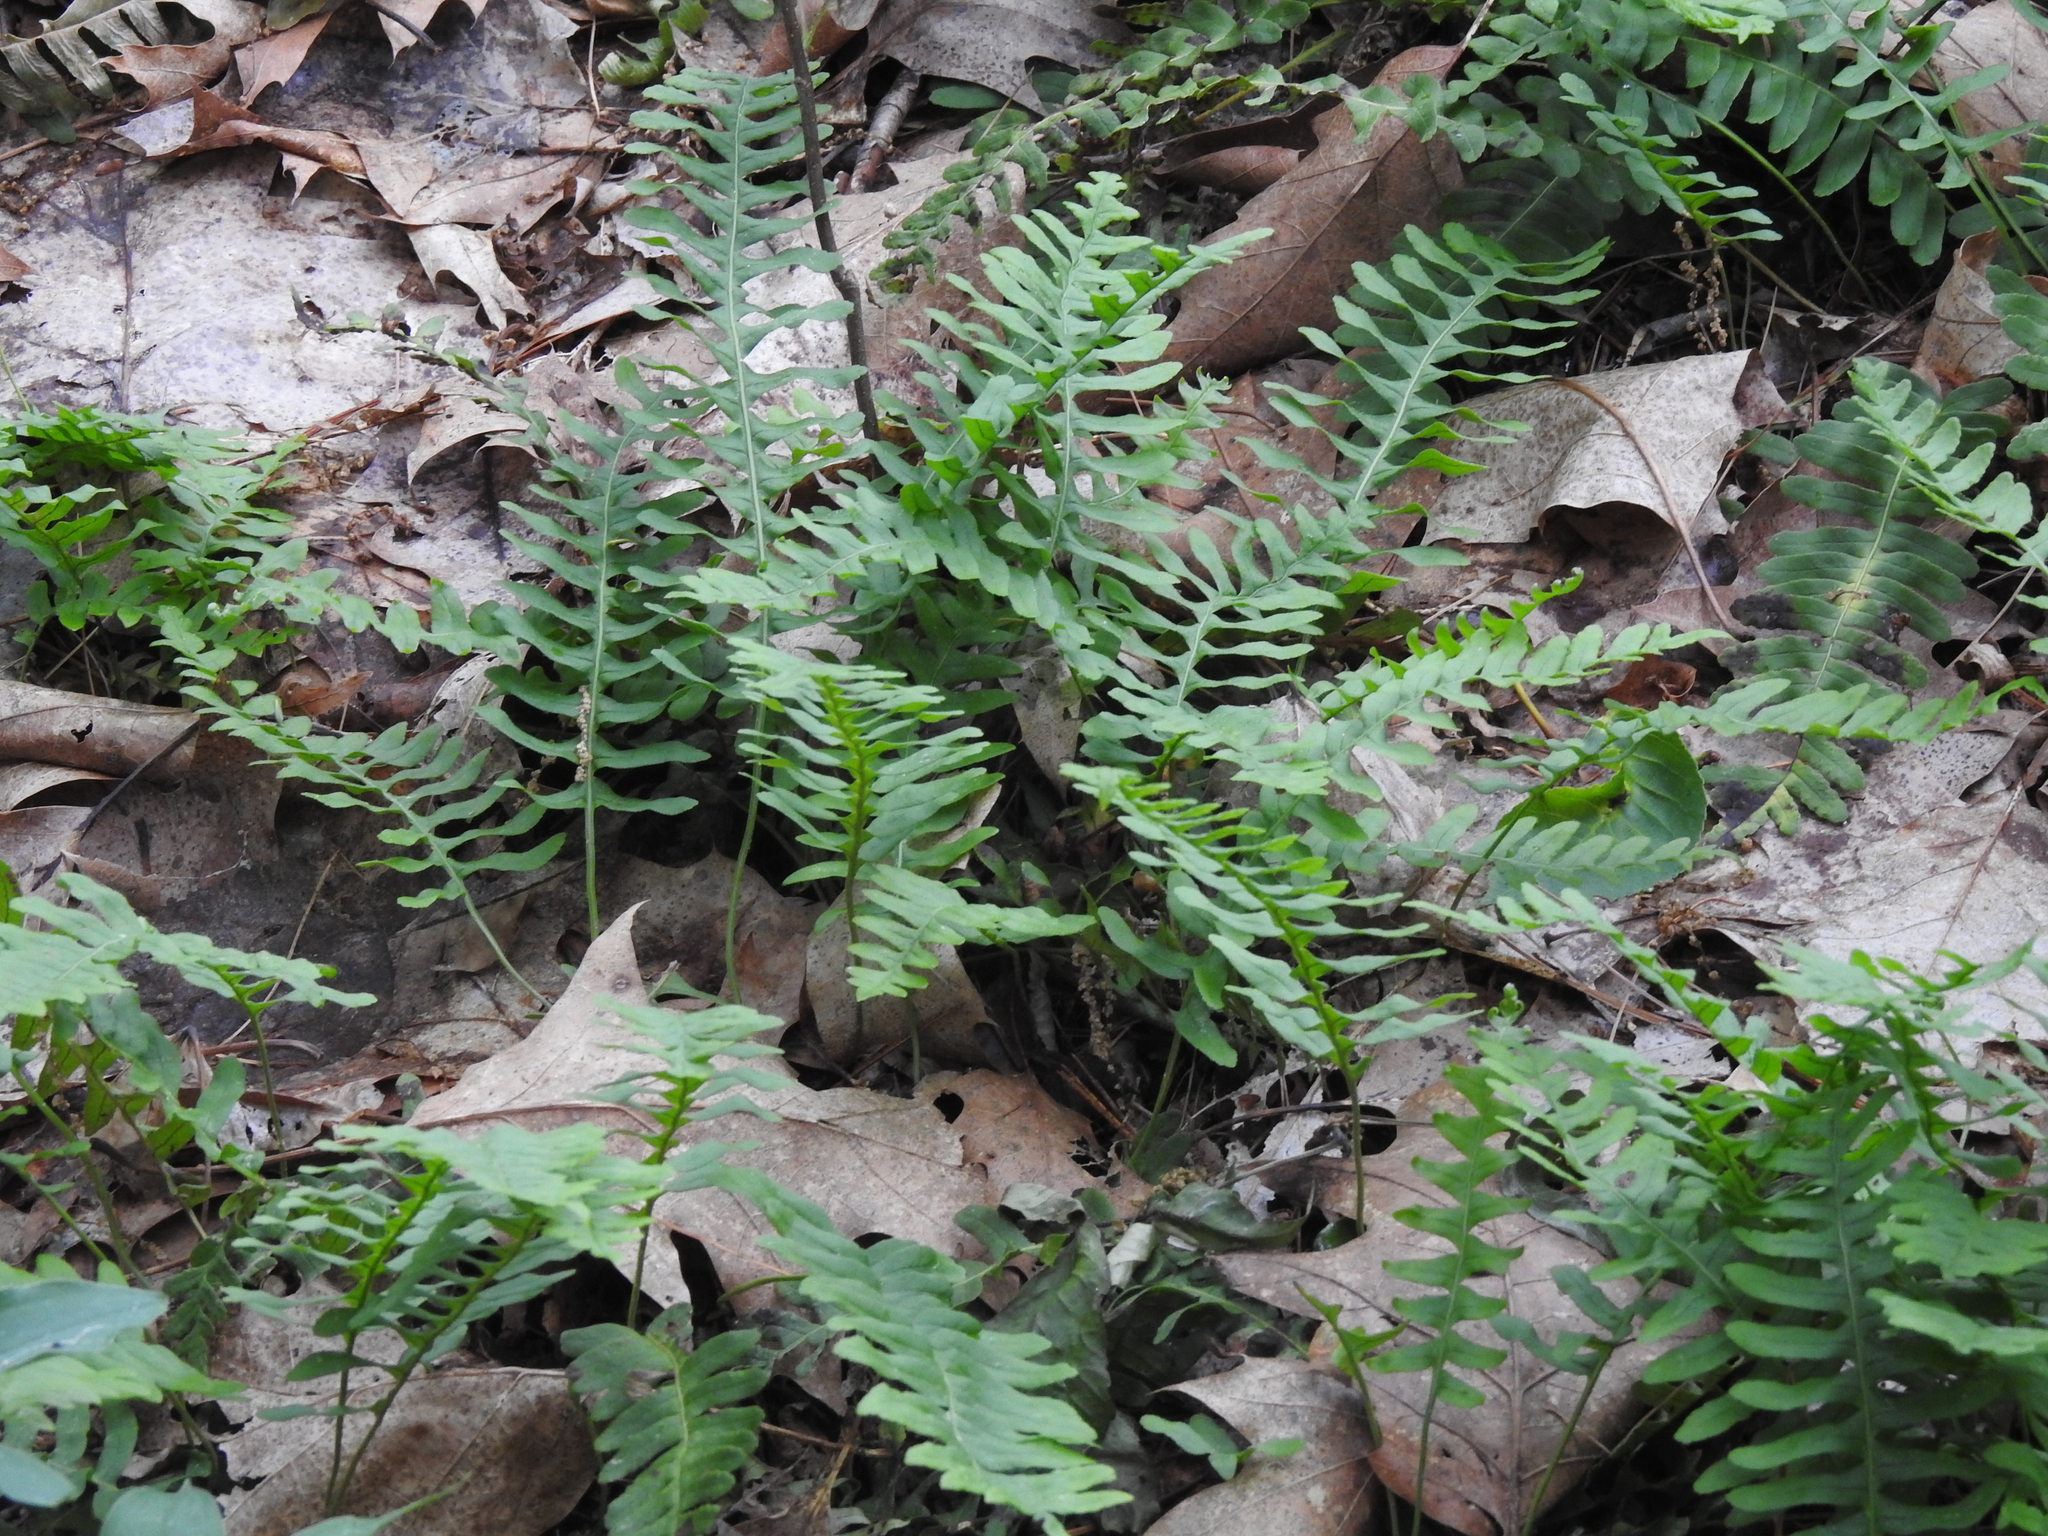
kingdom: Plantae
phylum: Tracheophyta
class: Polypodiopsida
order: Polypodiales
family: Polypodiaceae
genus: Polypodium
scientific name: Polypodium virginianum
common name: American wall fern
